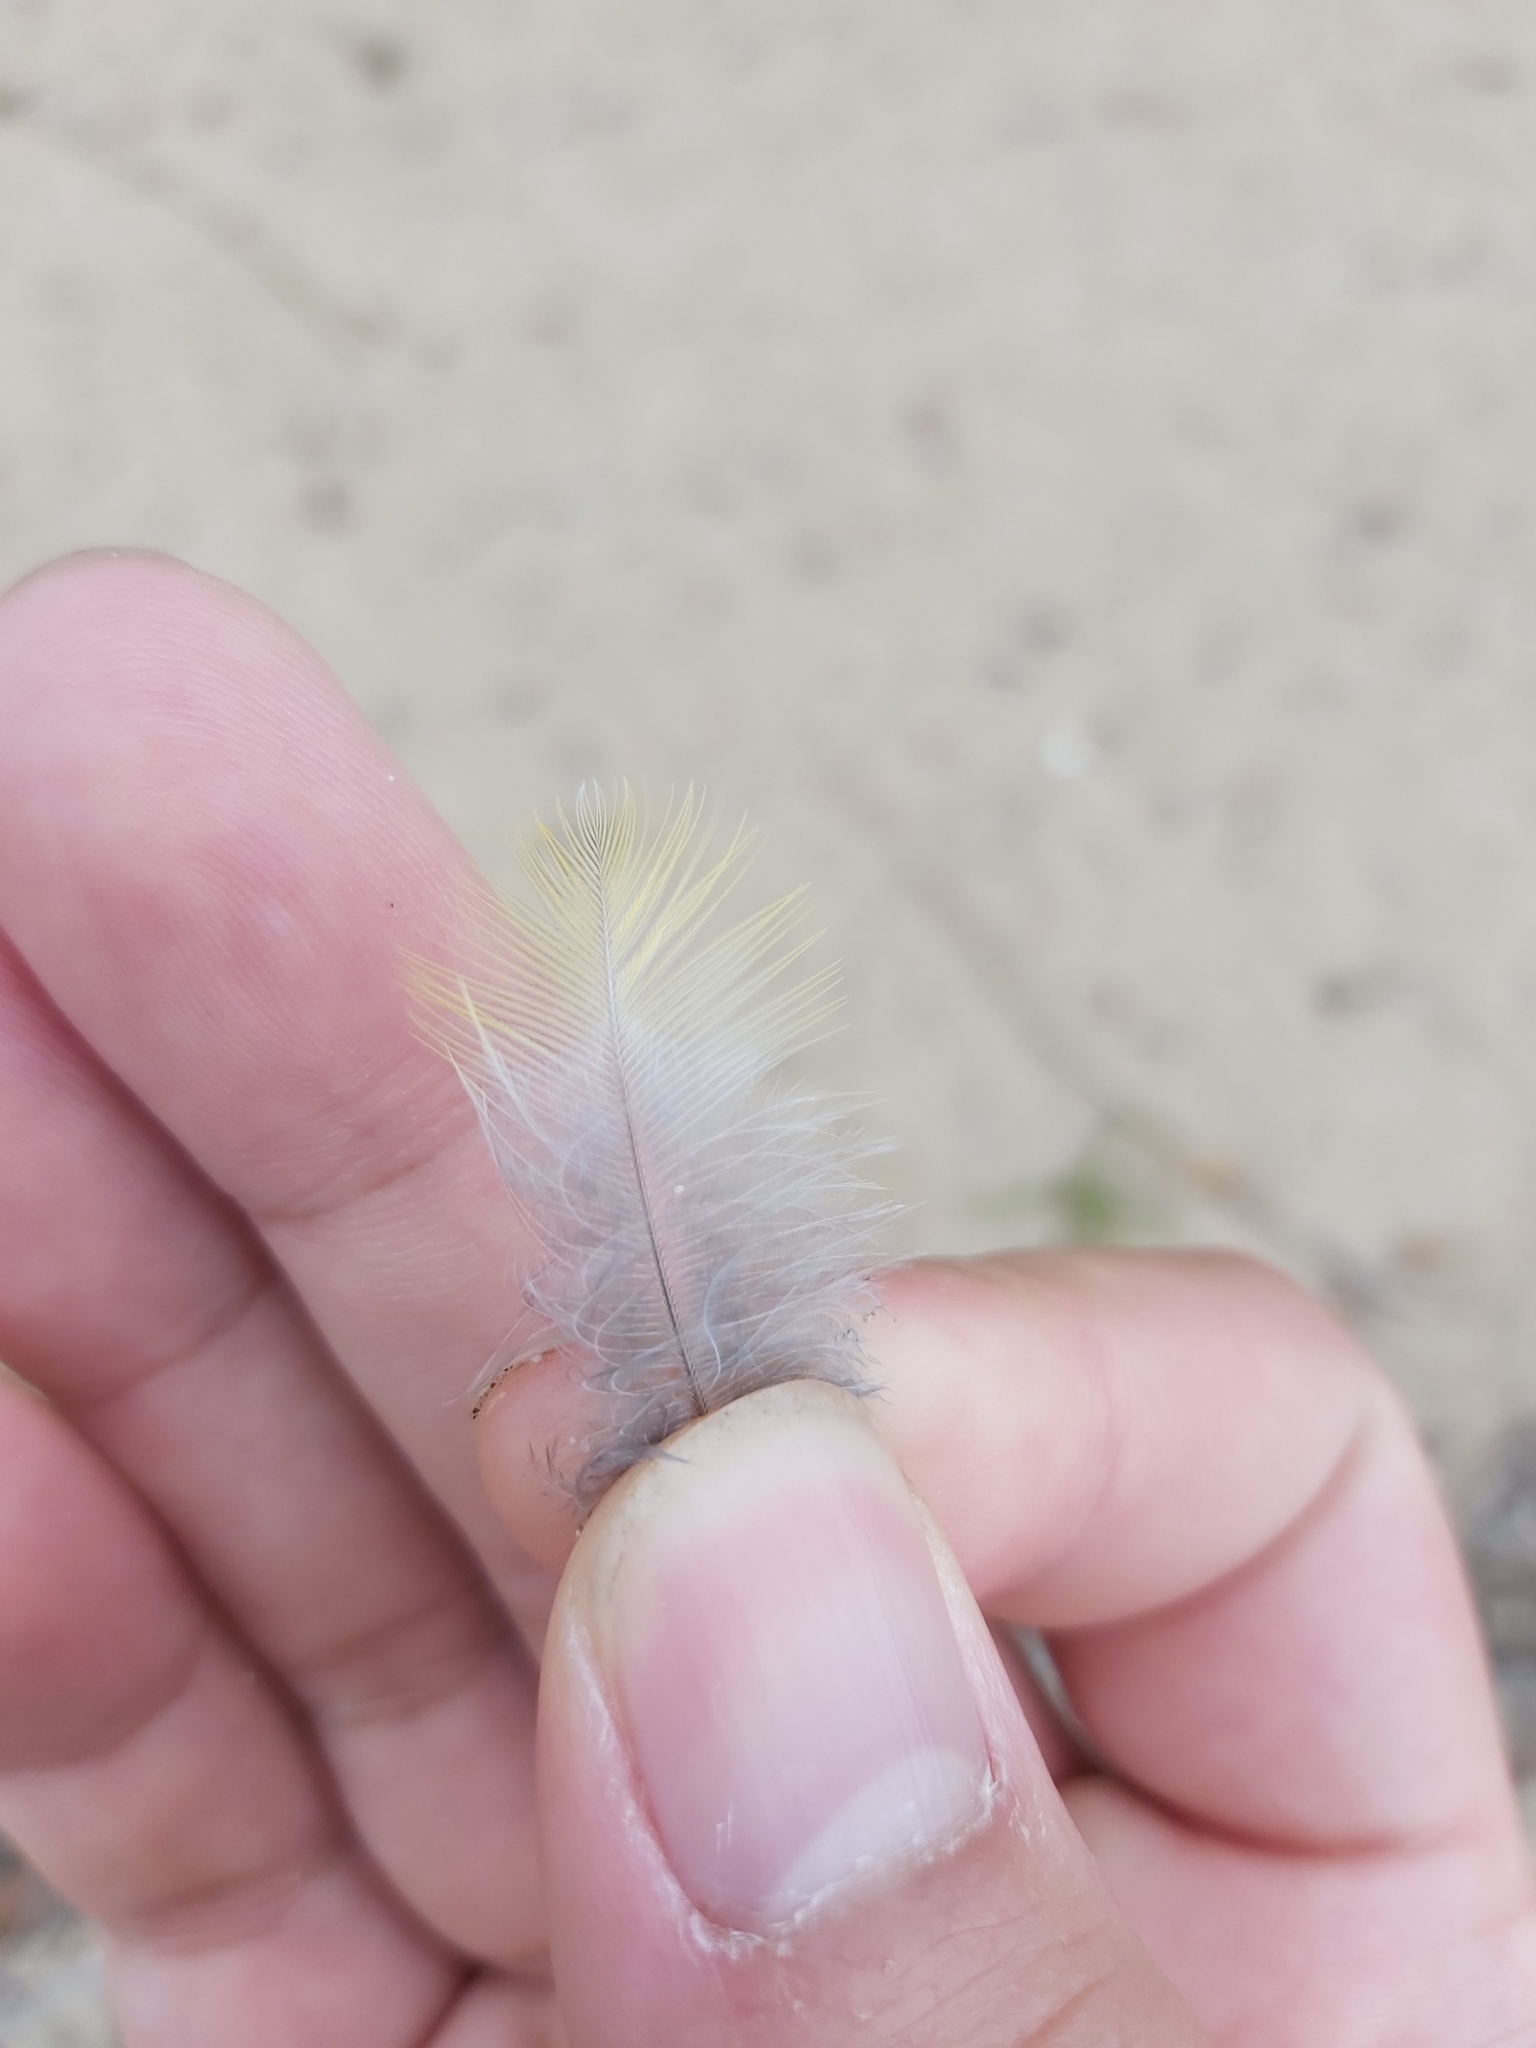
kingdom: Animalia
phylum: Chordata
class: Aves
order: Passeriformes
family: Meliphagidae
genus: Entomyzon
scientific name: Entomyzon cyanotis
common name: Blue-faced honeyeater
